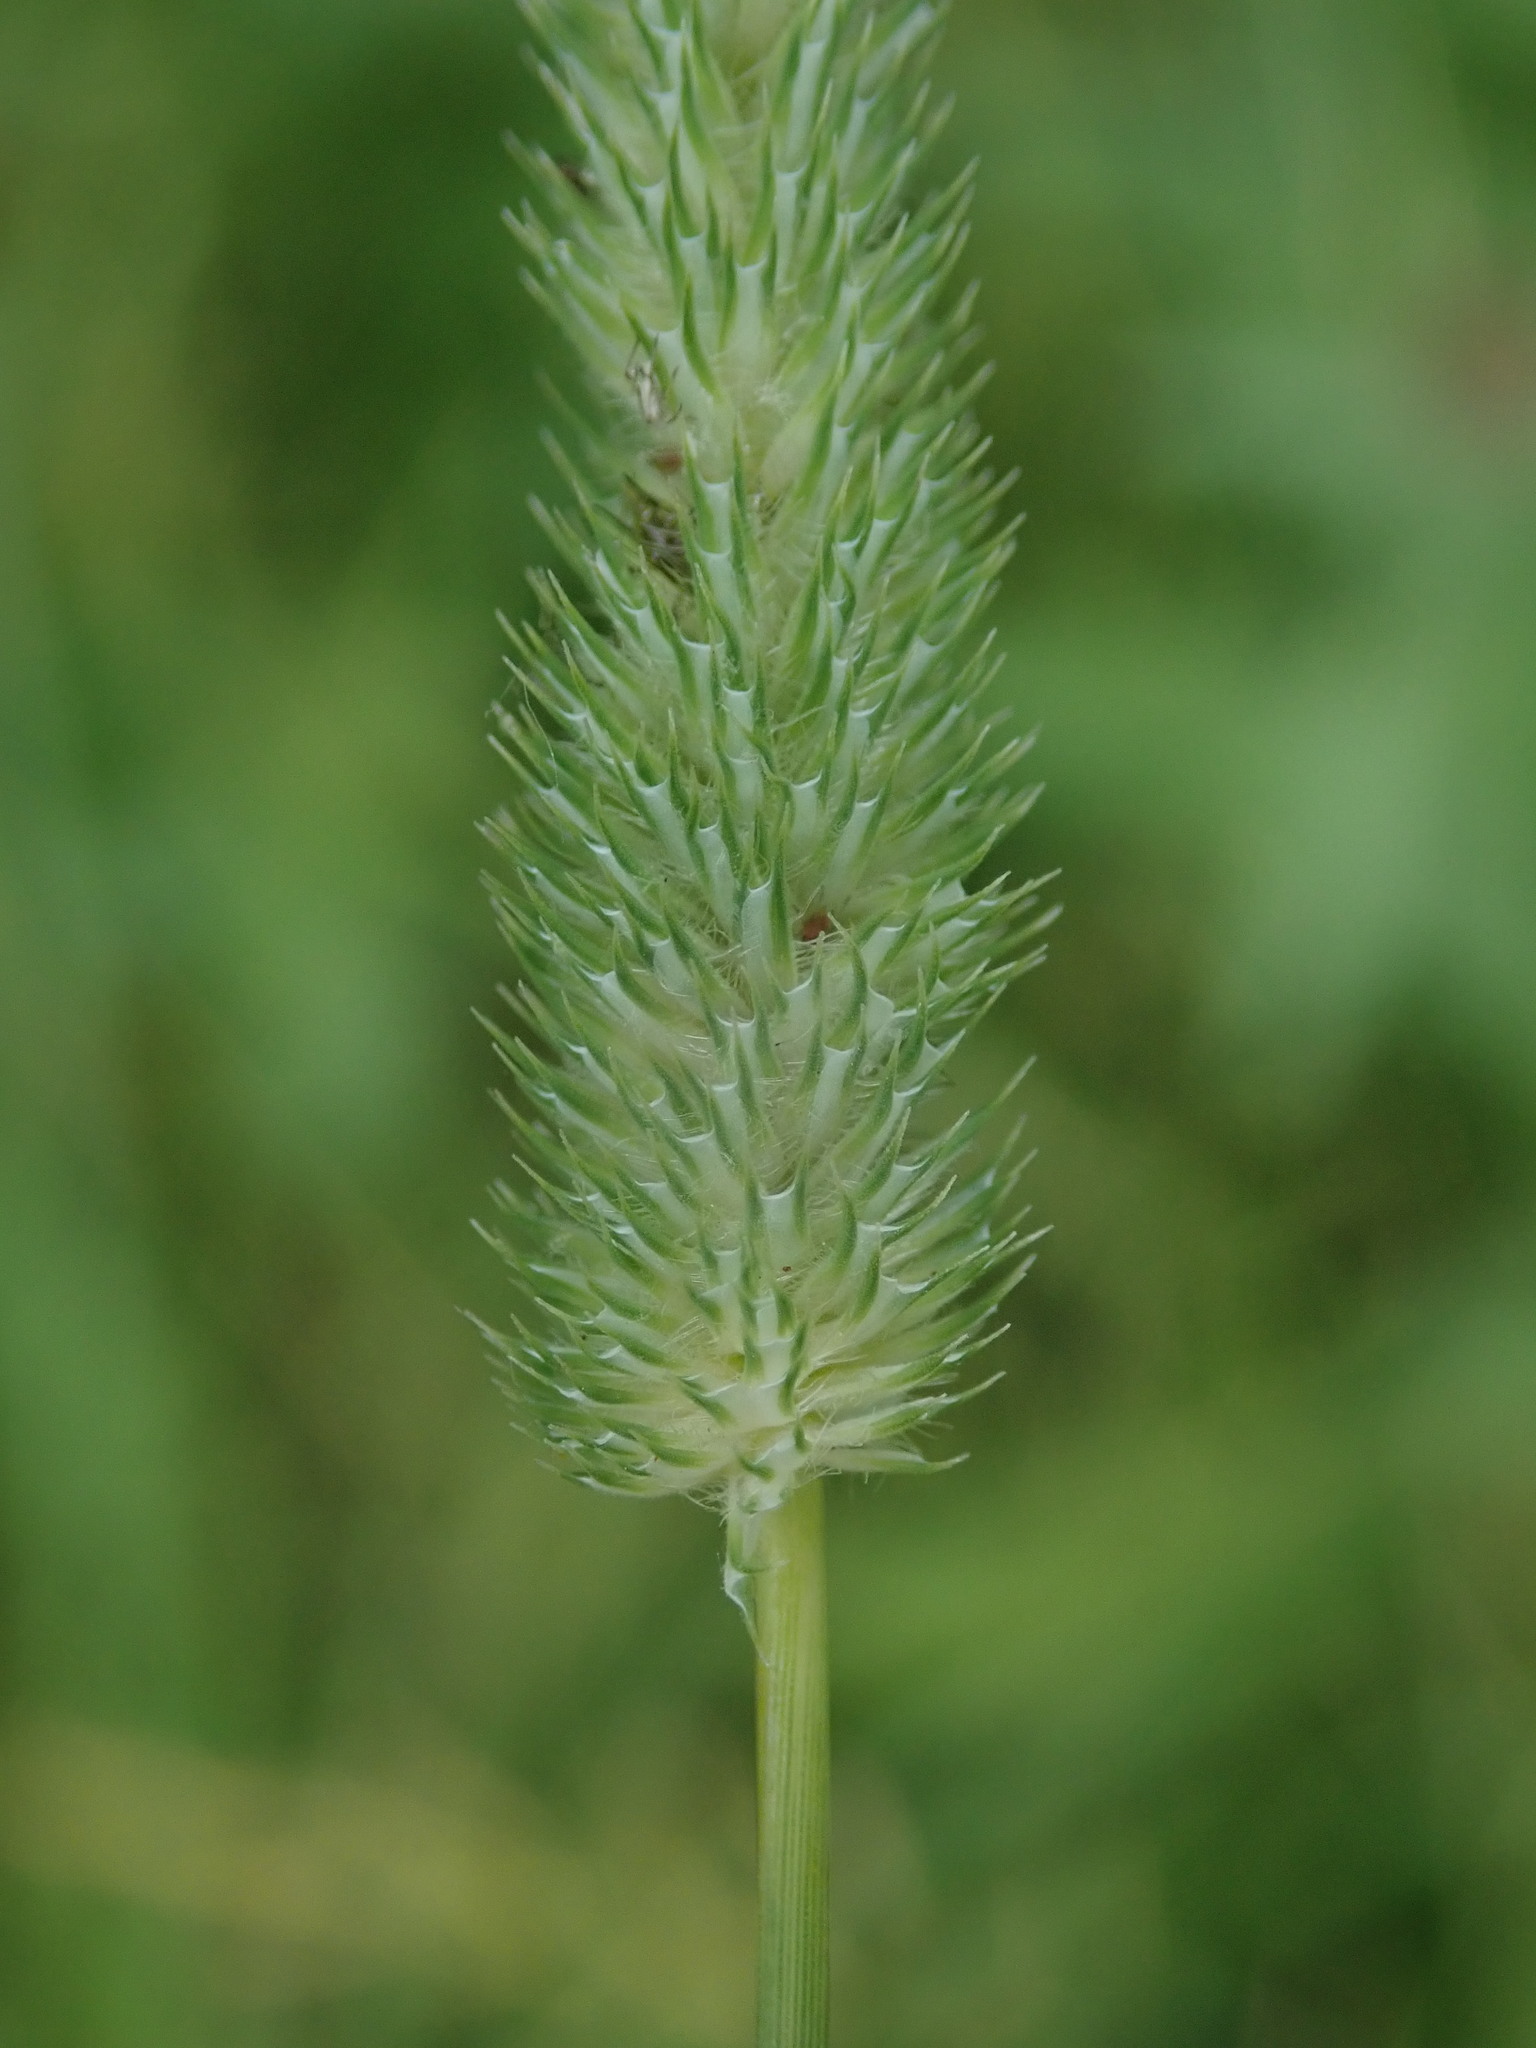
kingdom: Plantae
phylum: Tracheophyta
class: Liliopsida
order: Poales
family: Poaceae
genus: Phleum
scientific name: Phleum pratense
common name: Timothy grass
